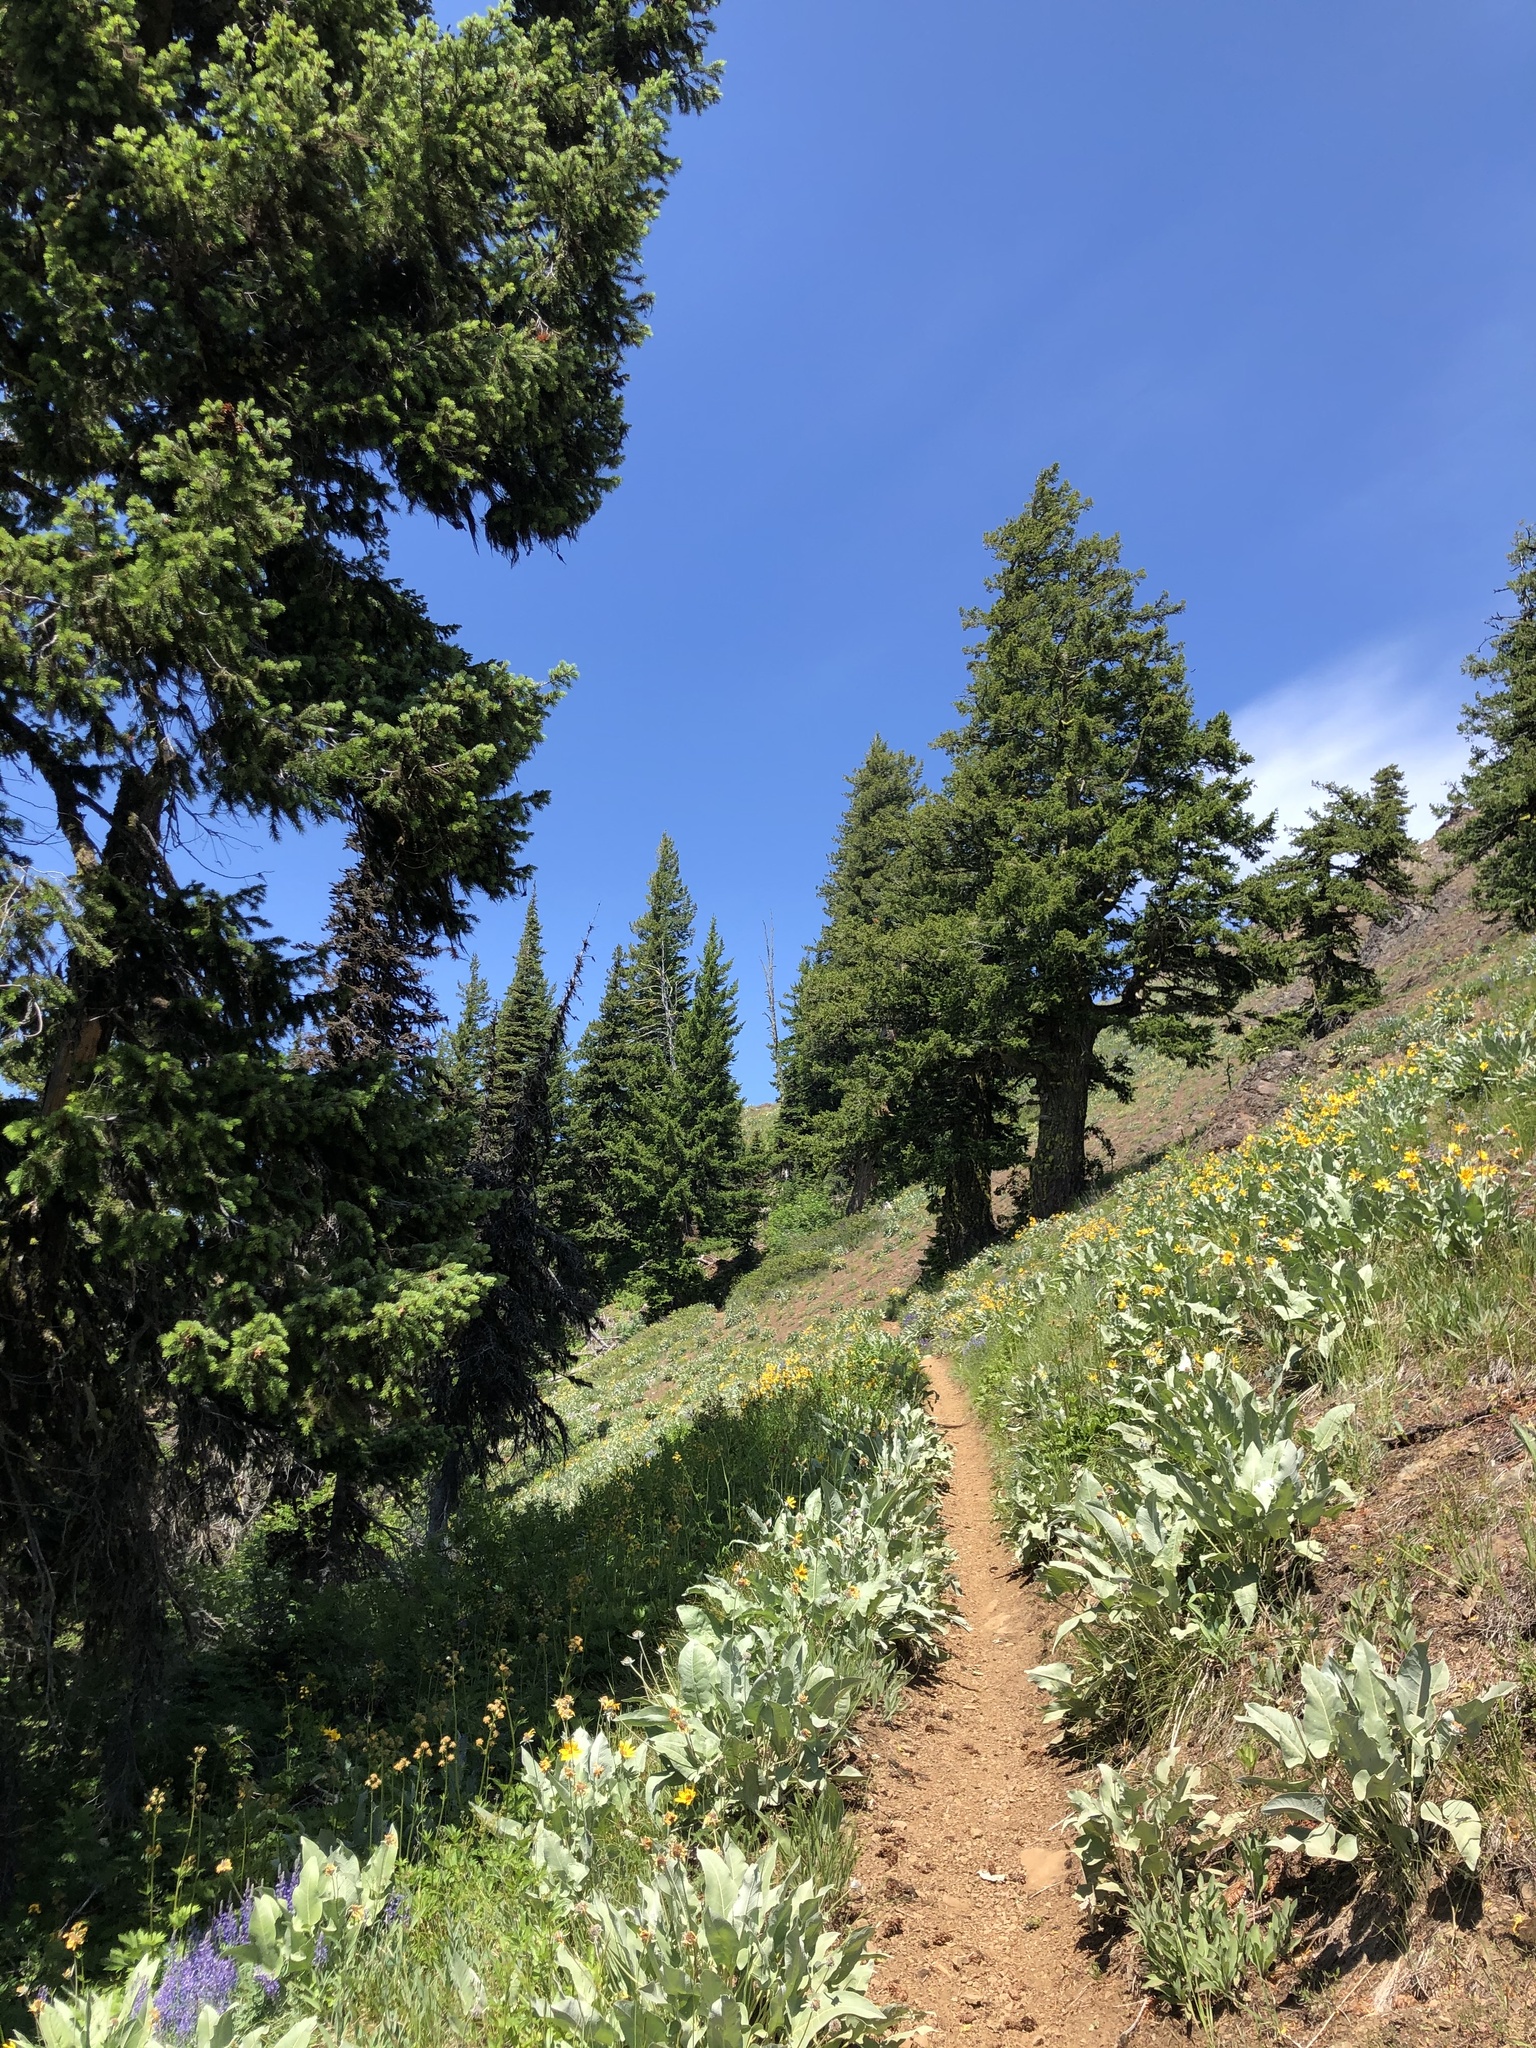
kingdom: Plantae
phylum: Tracheophyta
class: Pinopsida
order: Pinales
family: Pinaceae
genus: Pseudotsuga
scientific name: Pseudotsuga menziesii
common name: Douglas fir
